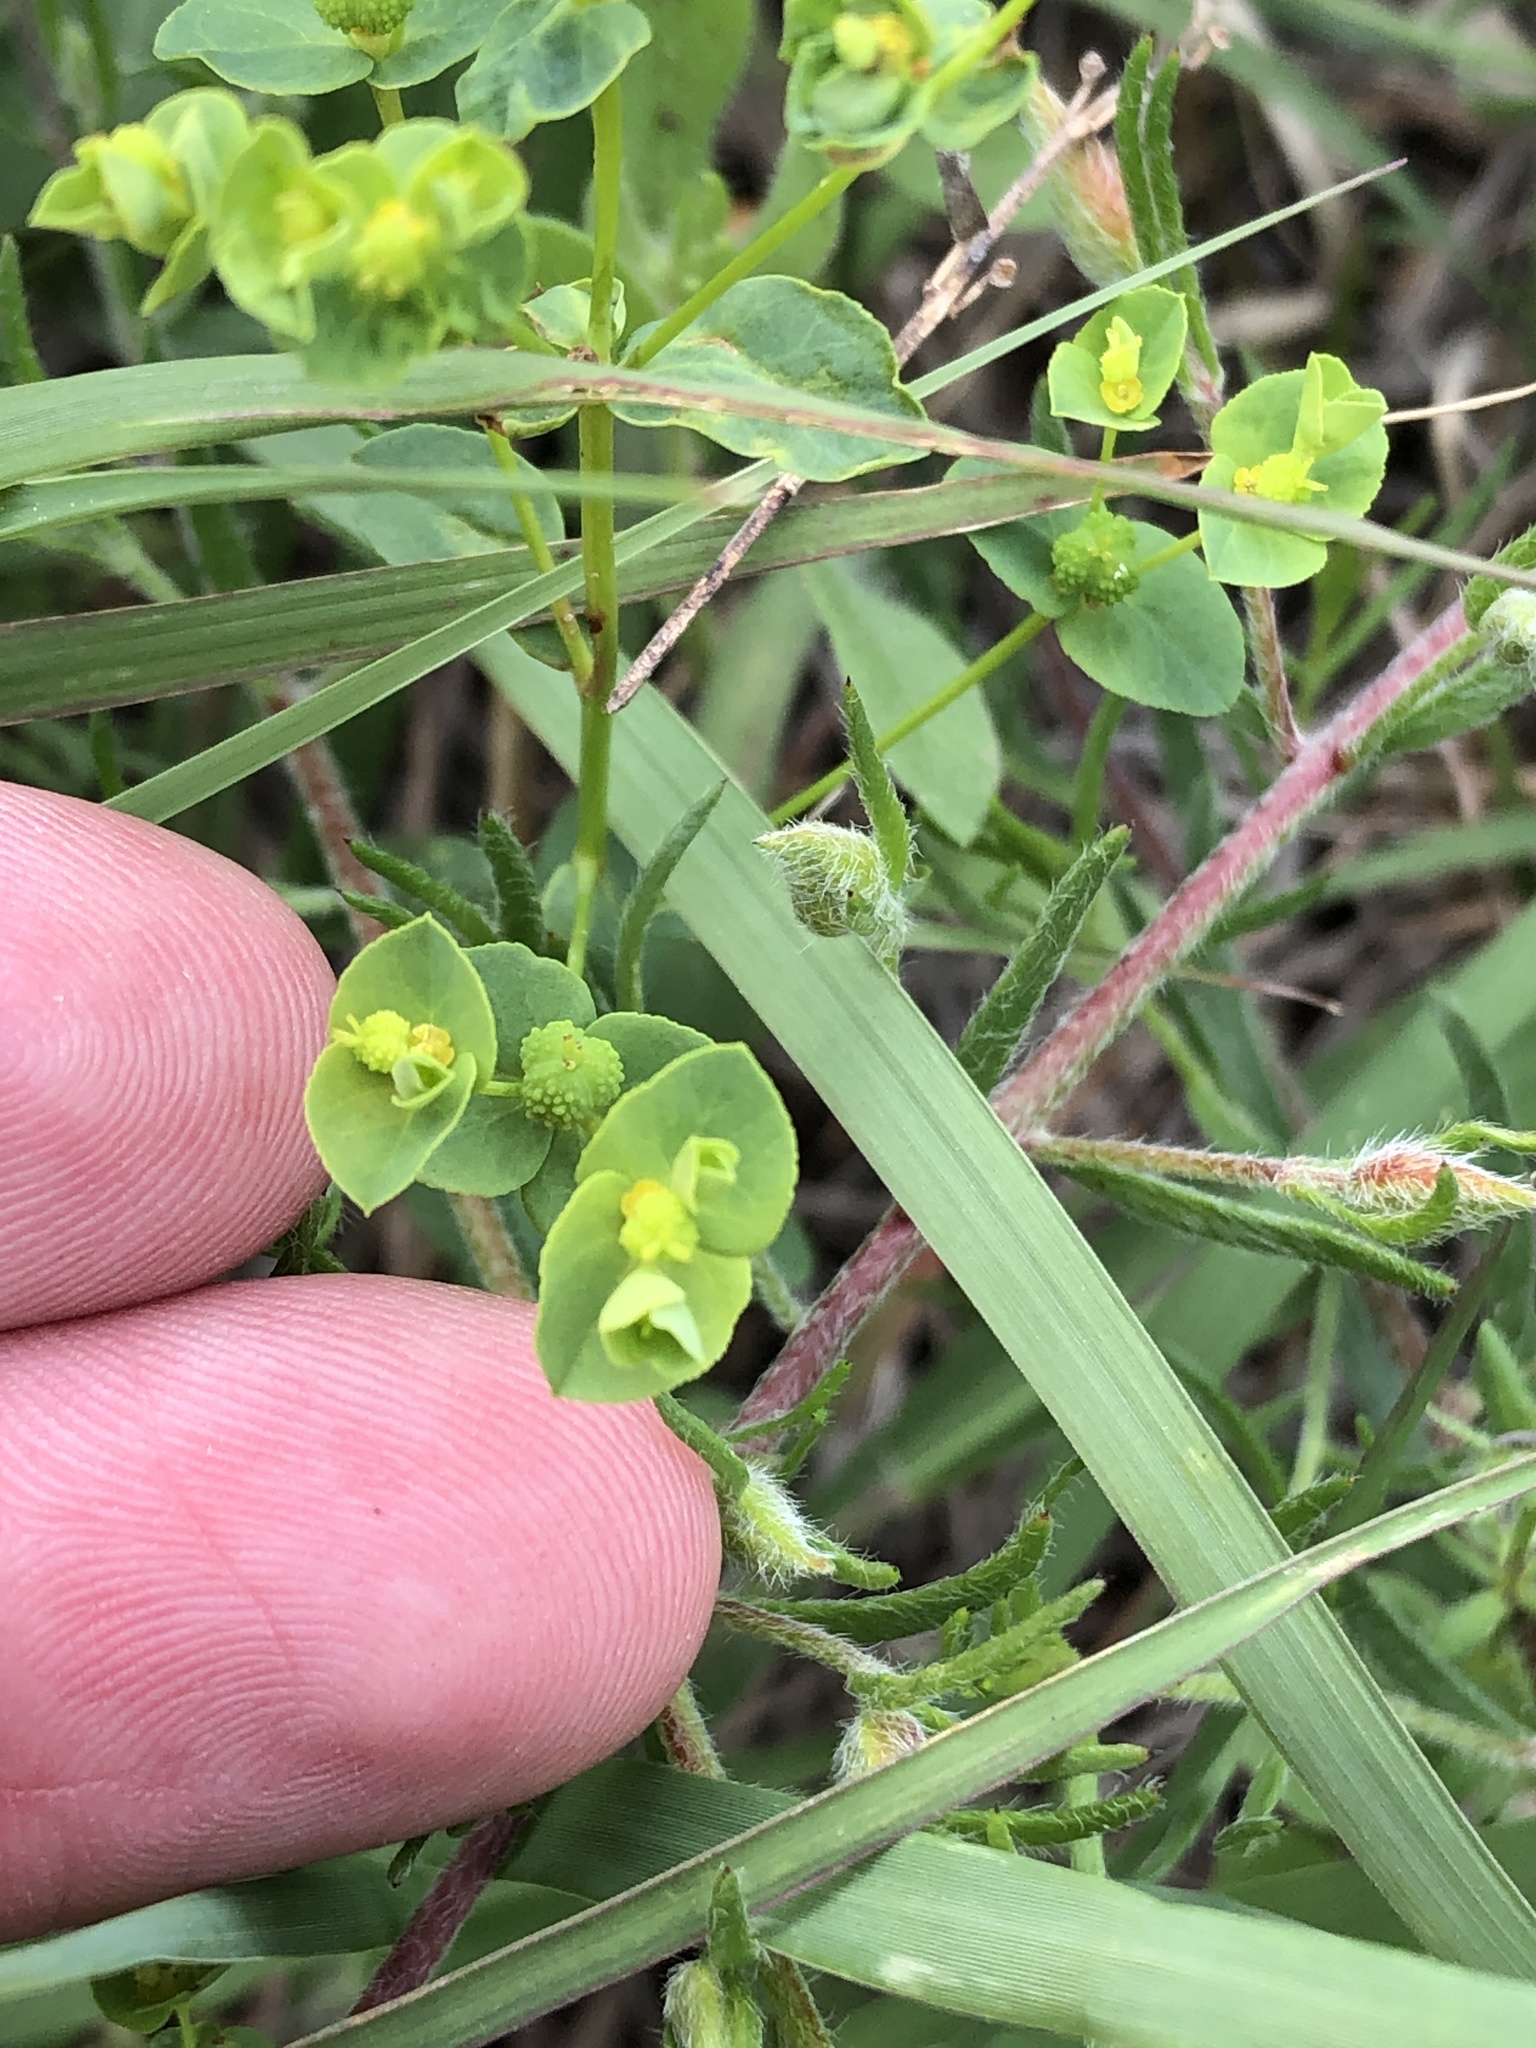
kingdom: Plantae
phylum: Tracheophyta
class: Magnoliopsida
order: Malpighiales
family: Euphorbiaceae
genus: Euphorbia
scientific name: Euphorbia spathulata
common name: Blunt spurge
